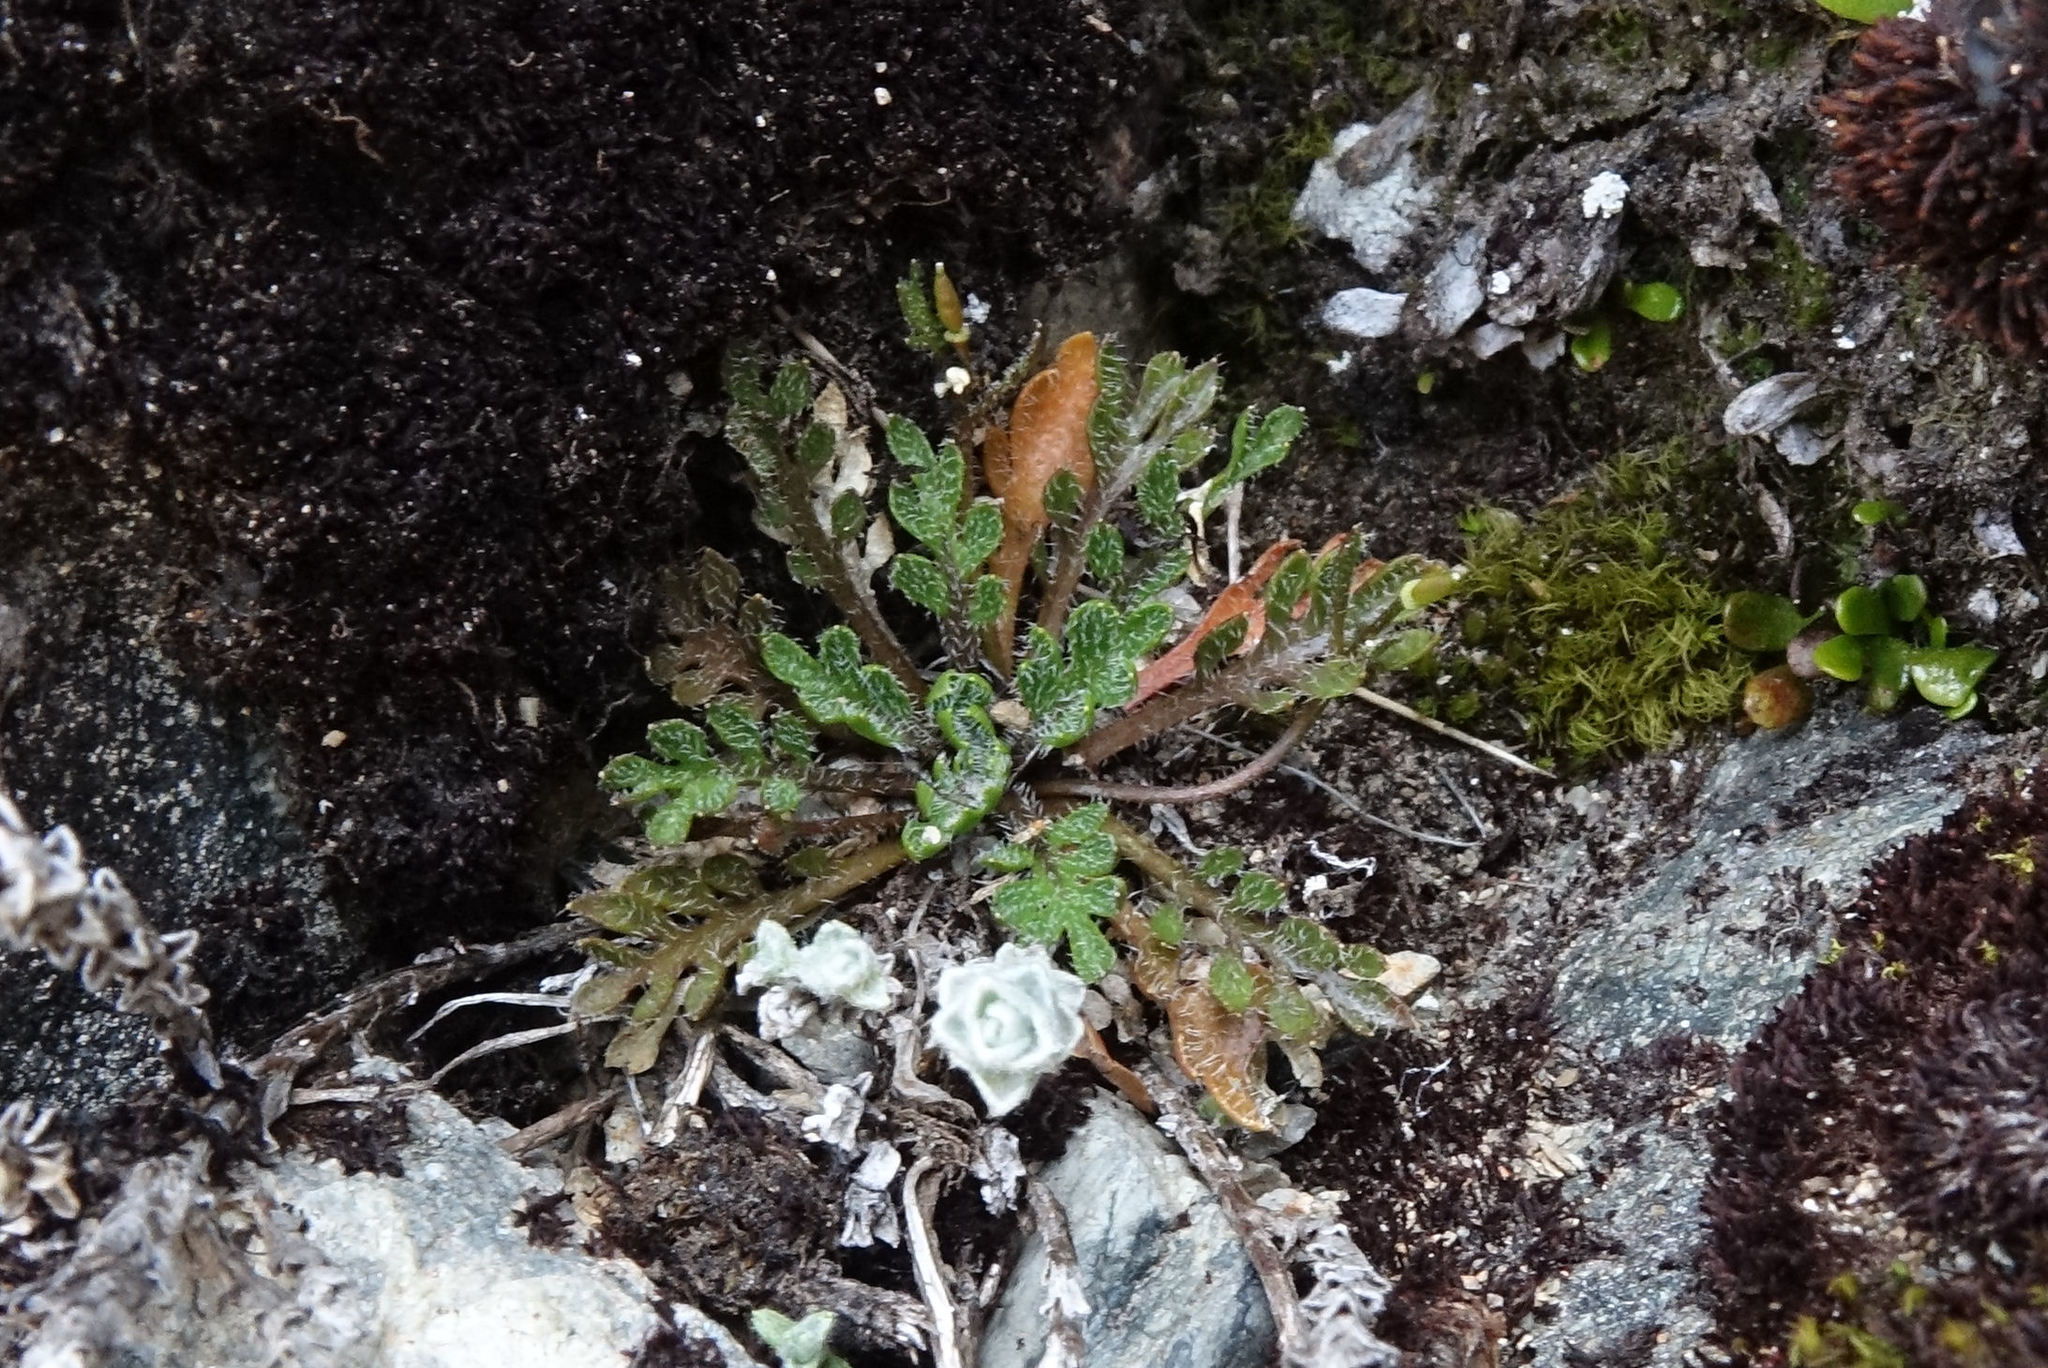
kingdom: Plantae
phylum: Tracheophyta
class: Magnoliopsida
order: Brassicales
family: Brassicaceae
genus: Pachycladon
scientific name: Pachycladon novae-zelandiae
